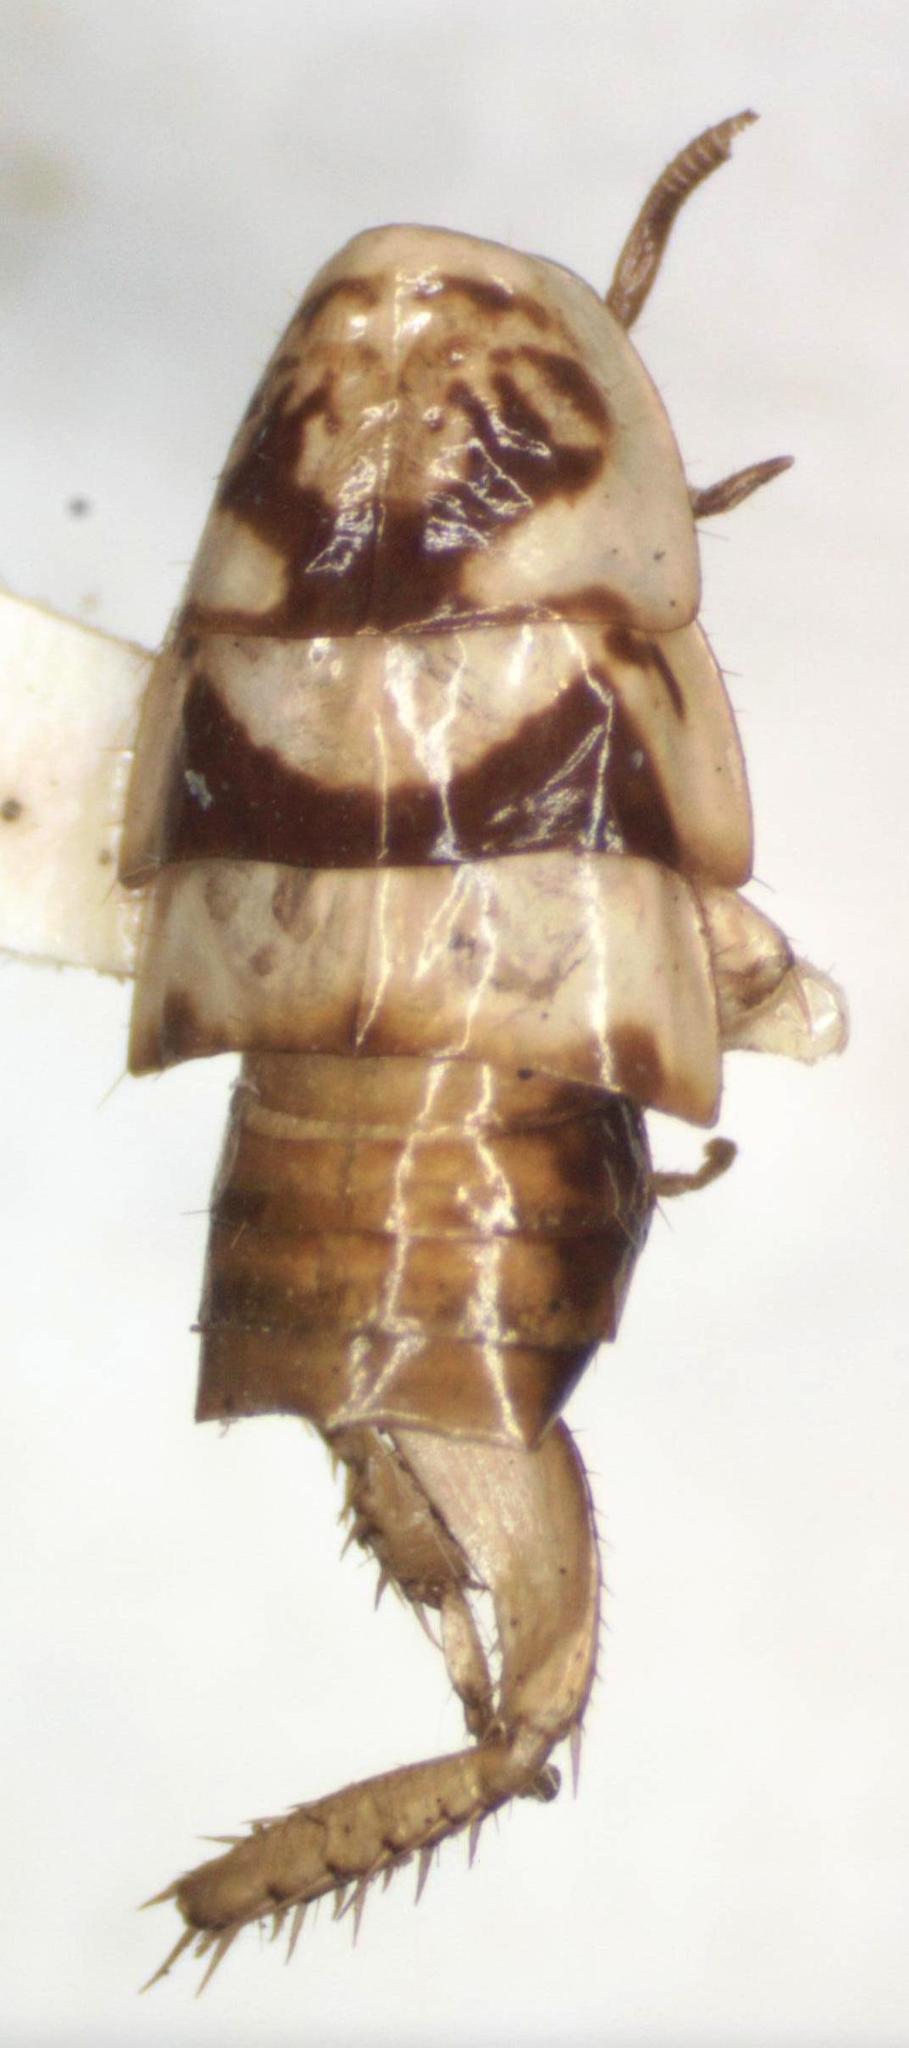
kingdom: Animalia
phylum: Arthropoda
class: Insecta
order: Blattodea
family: Ectobiidae
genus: Latiblattella
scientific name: Latiblattella angustifrons
